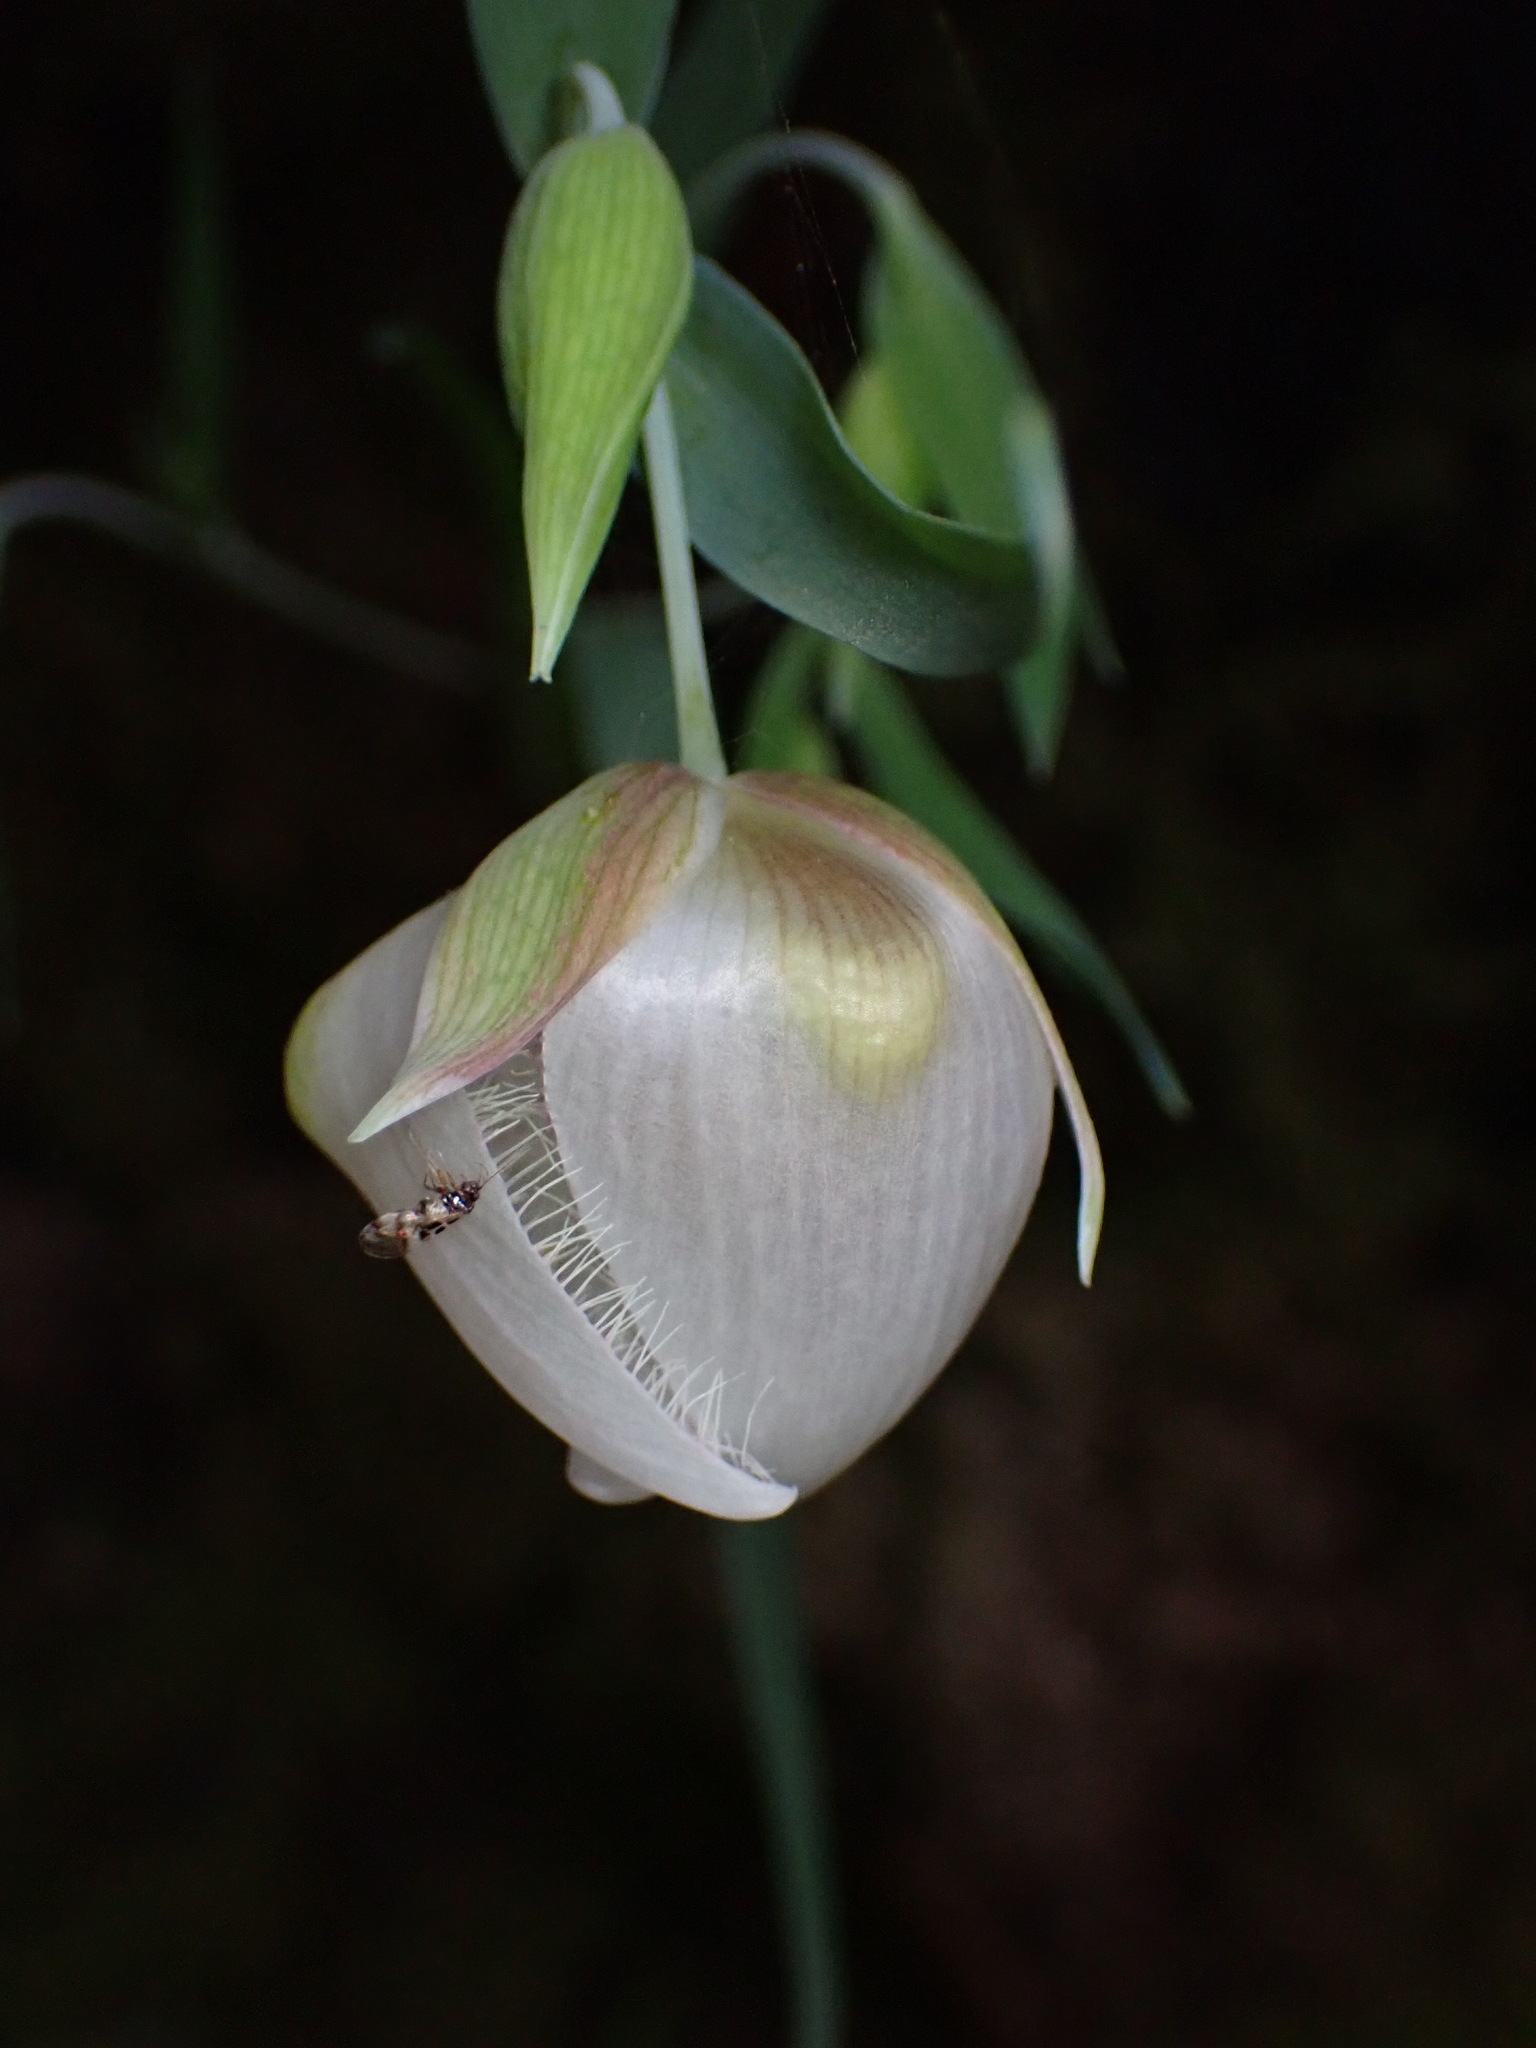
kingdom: Plantae
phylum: Tracheophyta
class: Liliopsida
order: Liliales
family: Liliaceae
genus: Calochortus
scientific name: Calochortus albus
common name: Fairy-lantern
